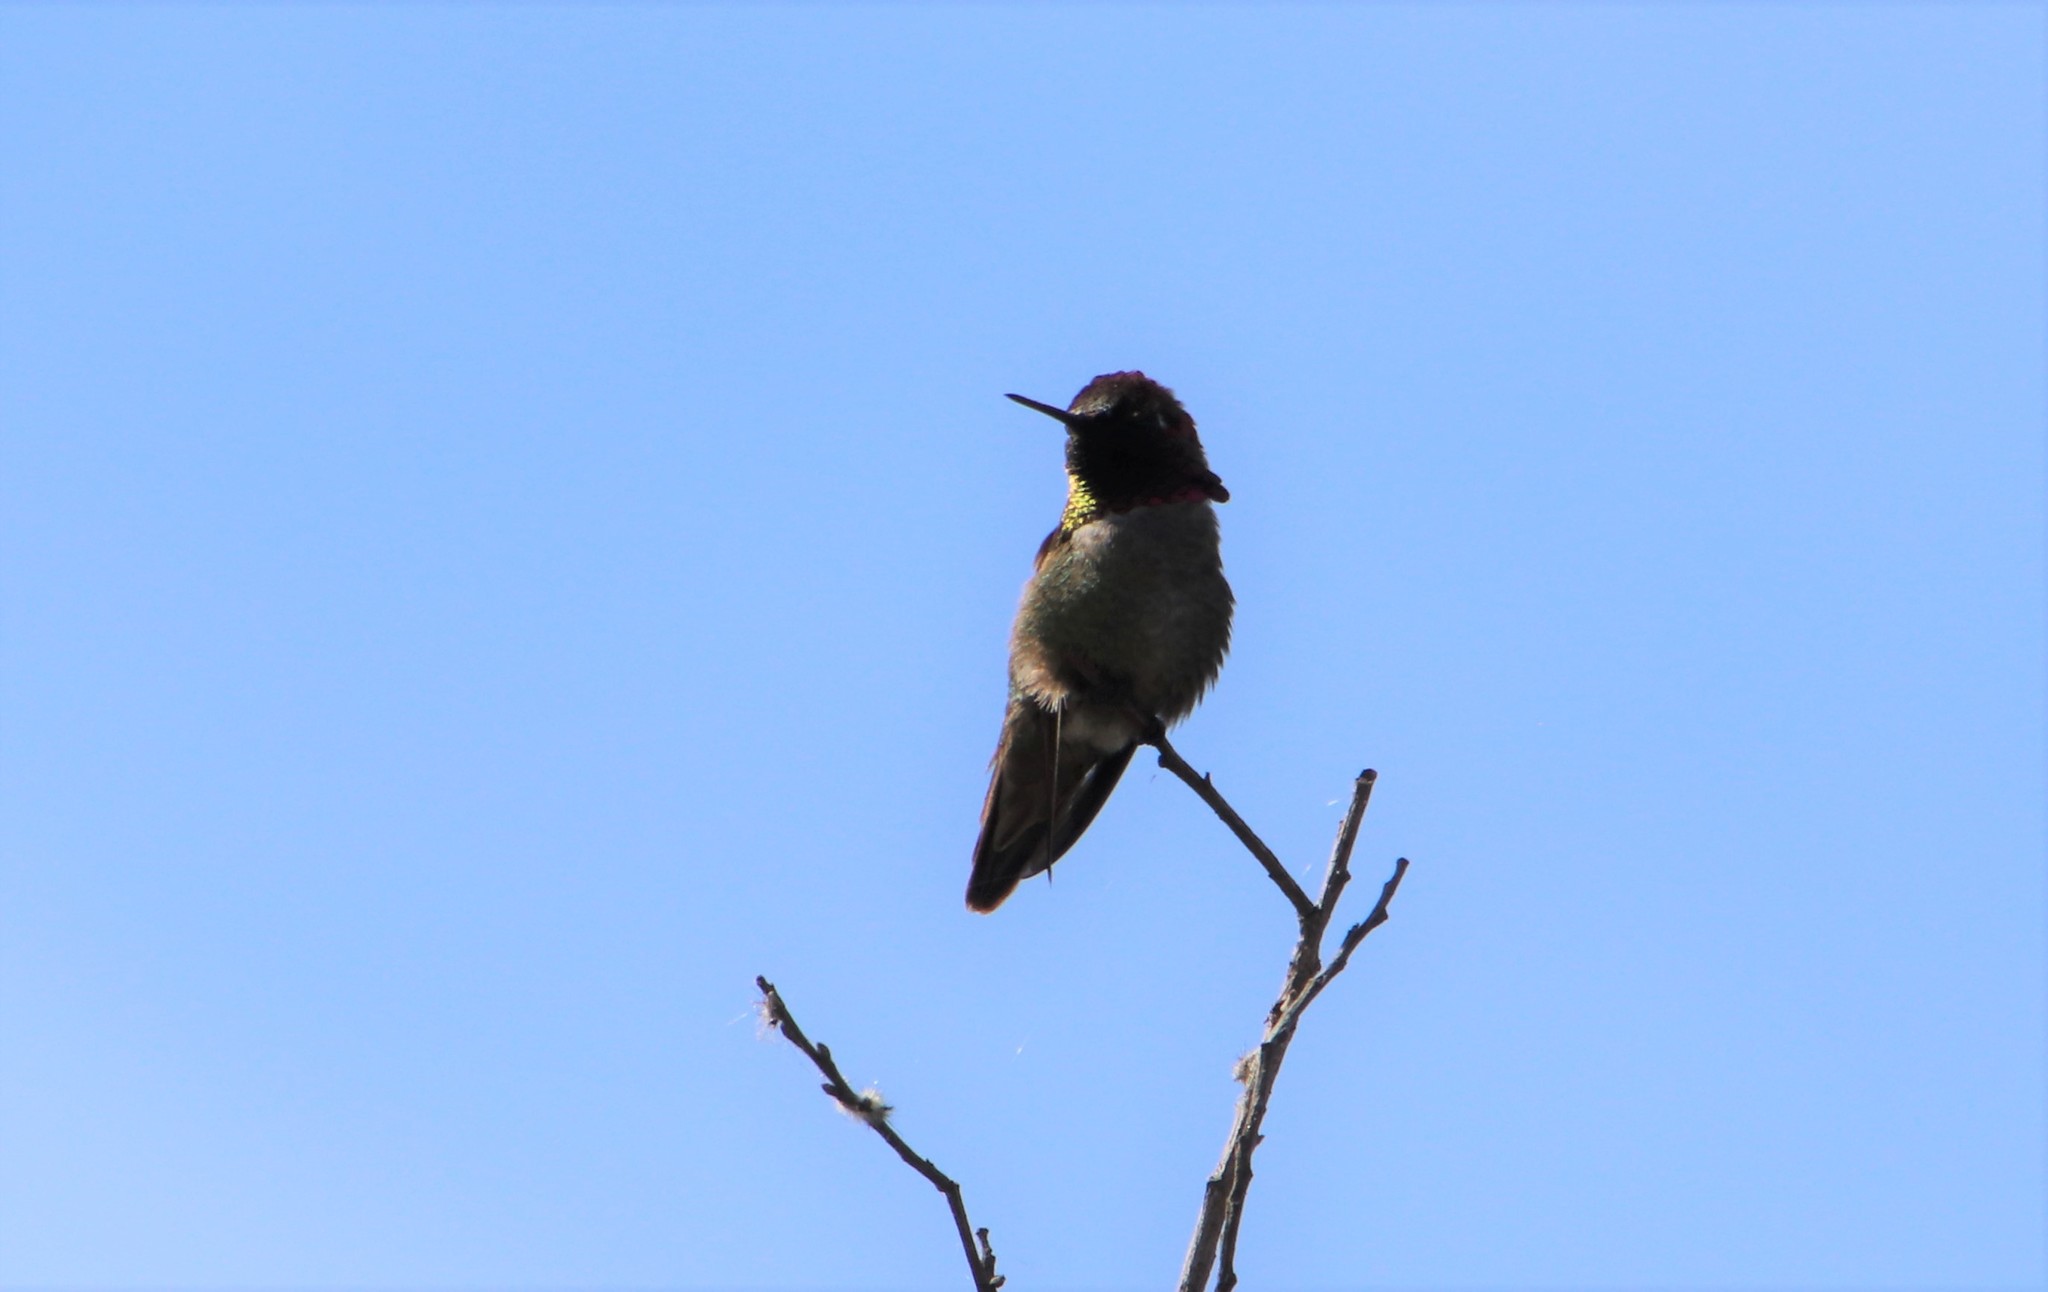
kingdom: Animalia
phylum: Chordata
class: Aves
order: Apodiformes
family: Trochilidae
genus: Calypte
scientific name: Calypte anna
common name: Anna's hummingbird
